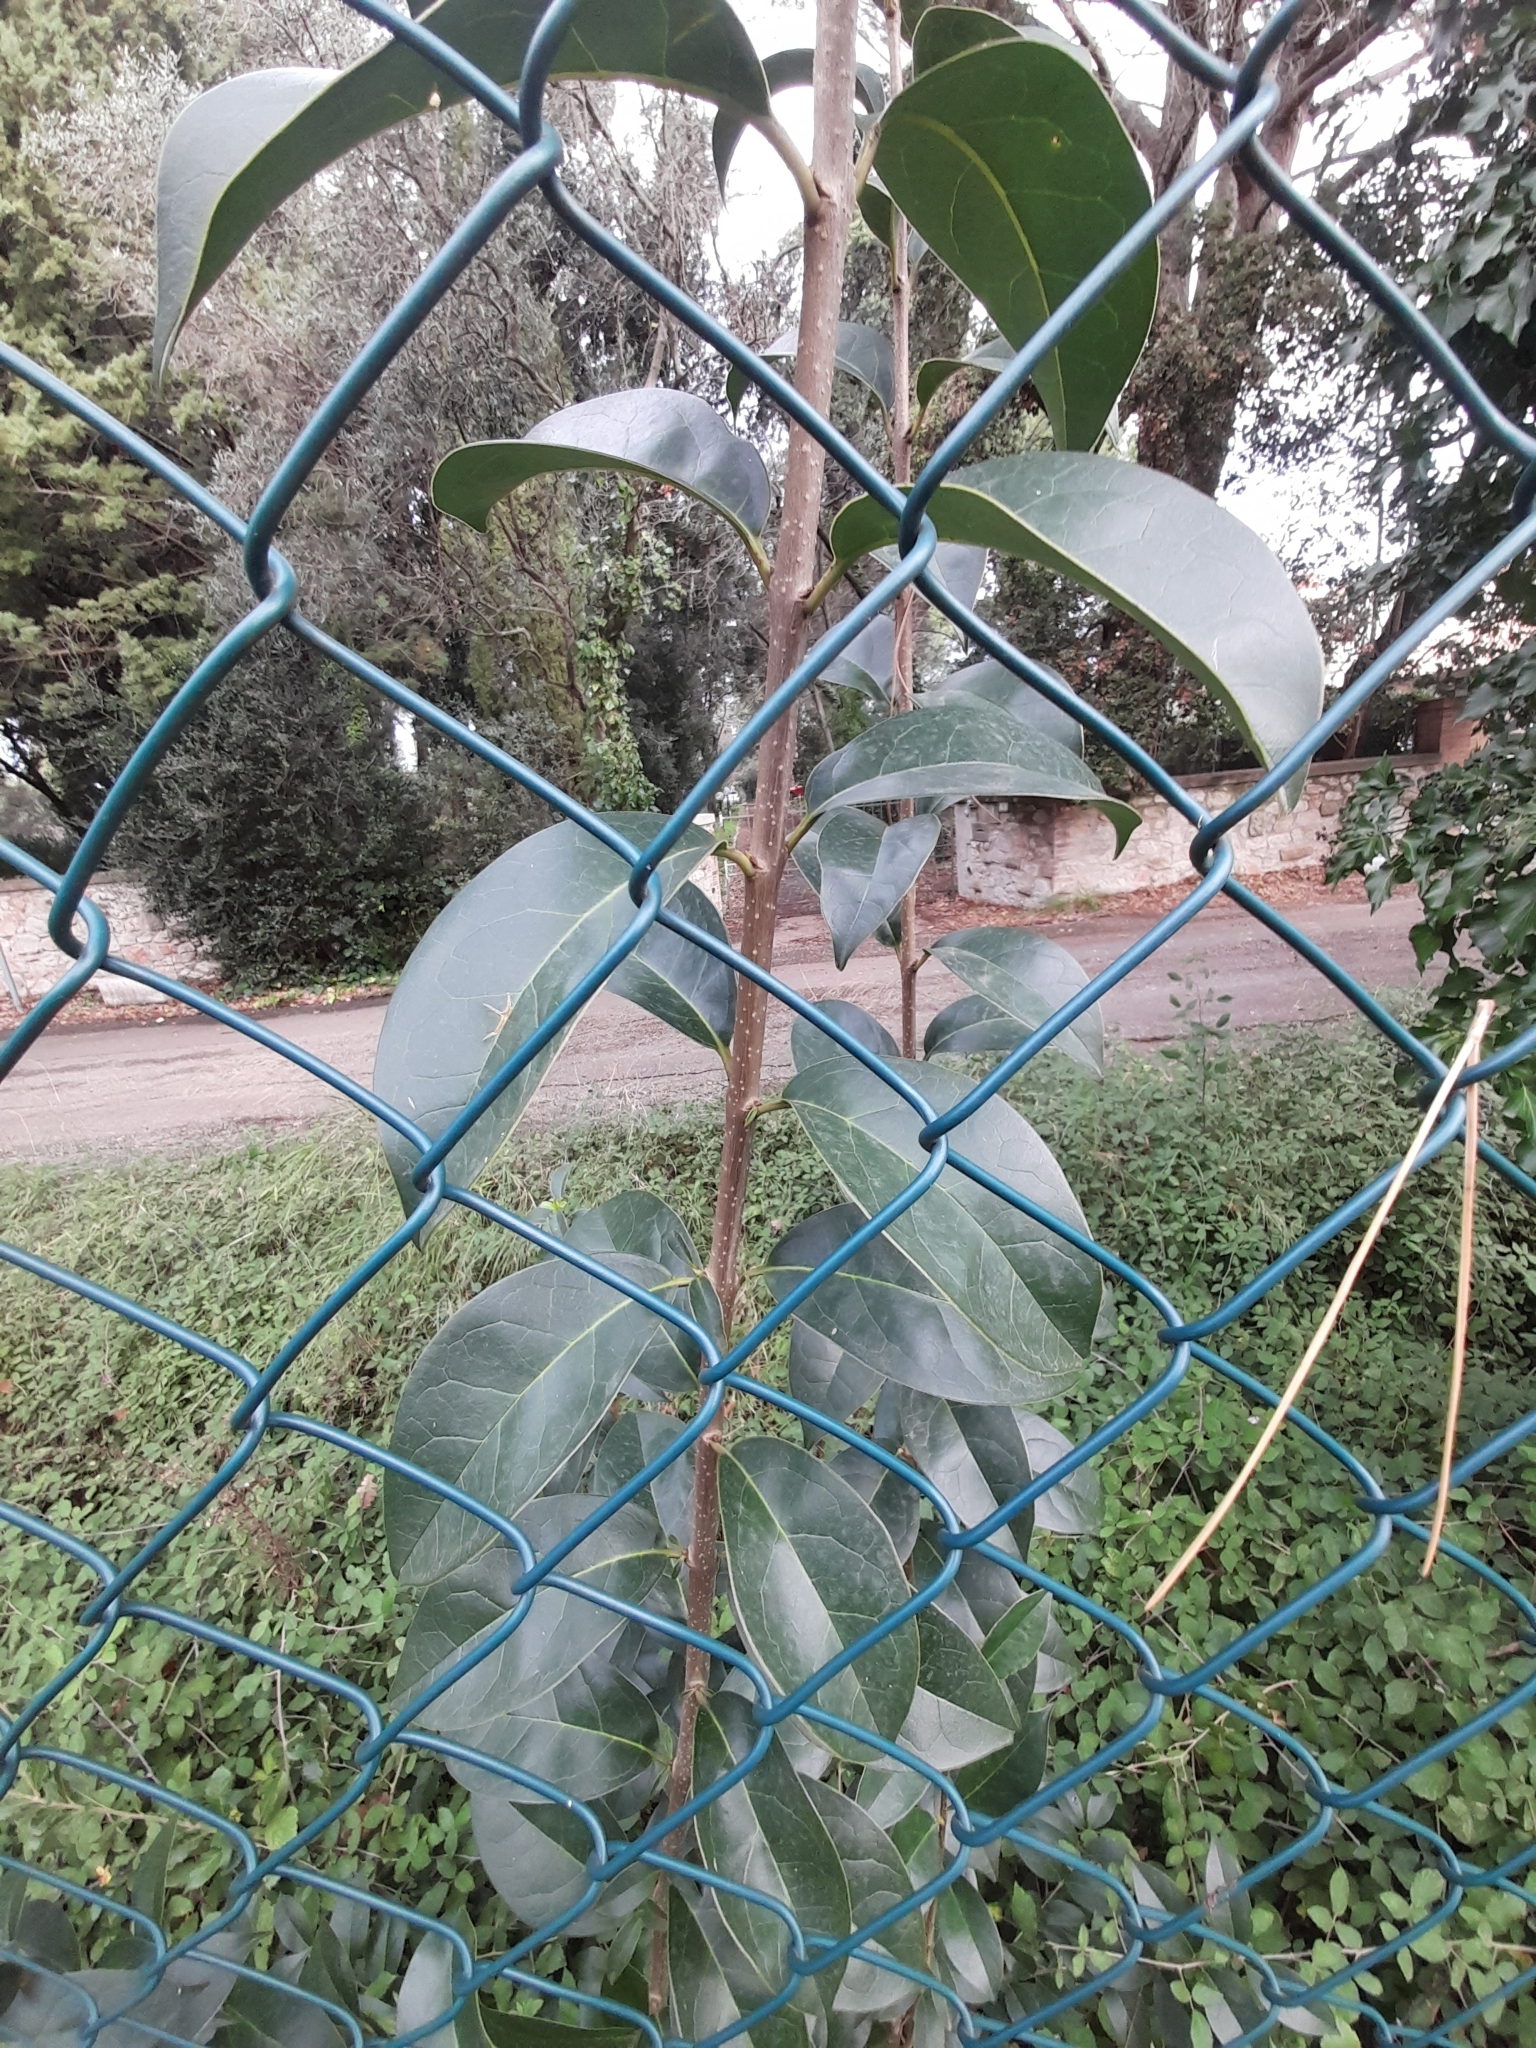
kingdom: Plantae
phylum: Tracheophyta
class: Magnoliopsida
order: Lamiales
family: Oleaceae
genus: Ligustrum
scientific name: Ligustrum lucidum
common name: Glossy privet
